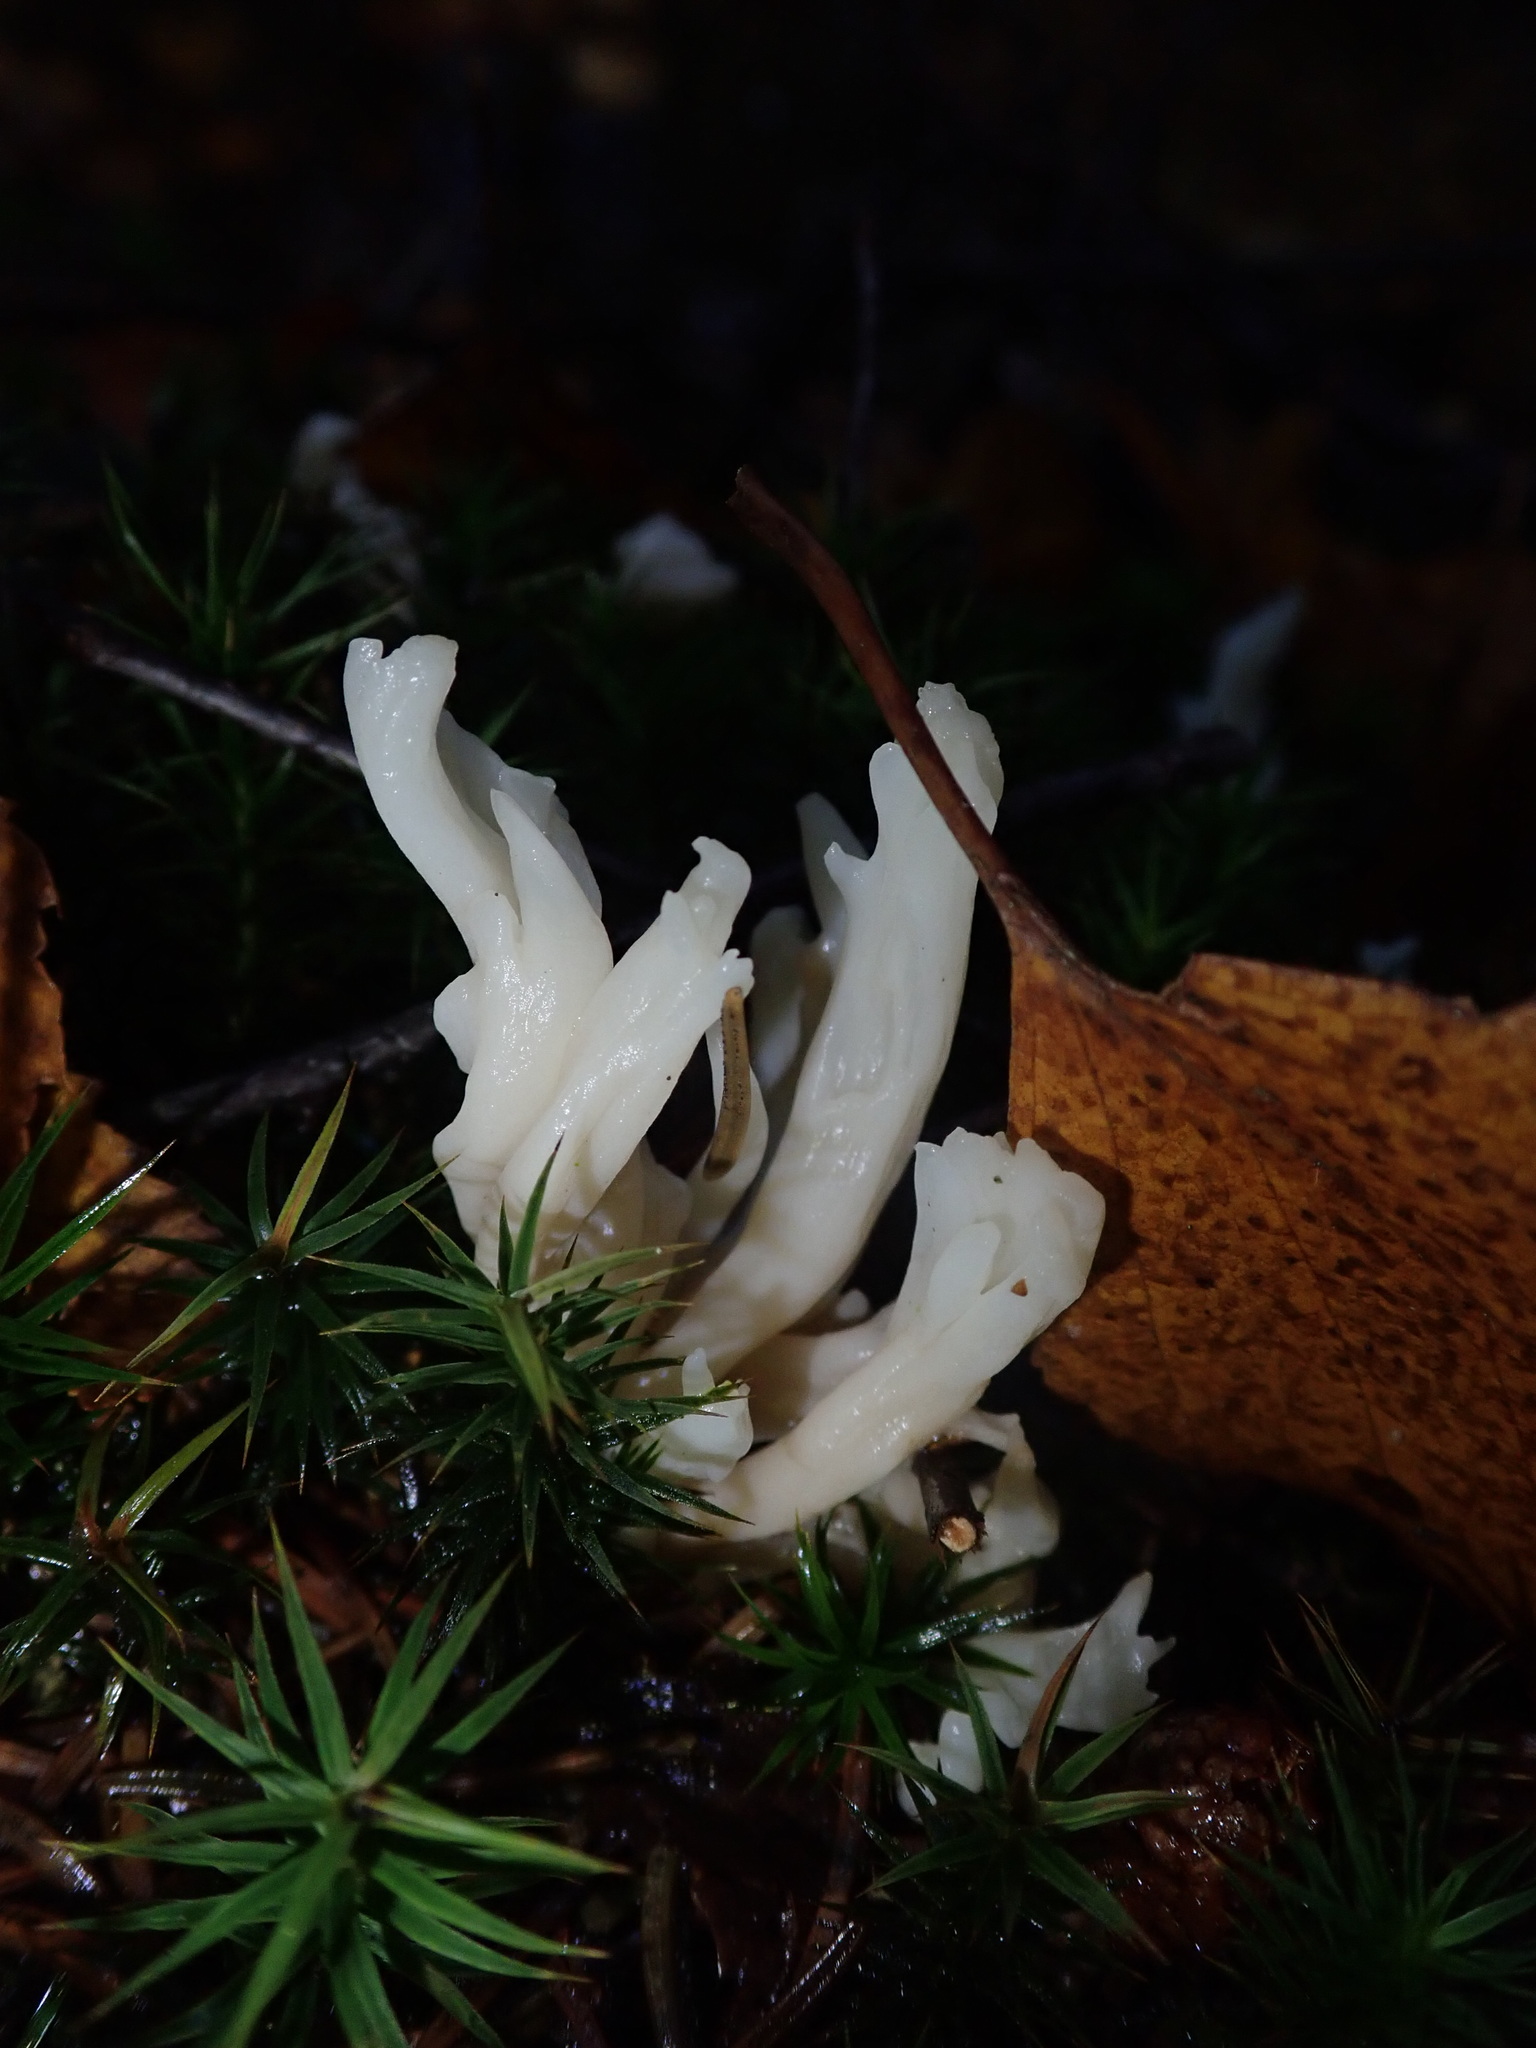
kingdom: Fungi
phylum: Basidiomycota
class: Agaricomycetes
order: Cantharellales
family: Hydnaceae
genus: Clavulina
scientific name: Clavulina rugosa
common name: Wrinkled club
